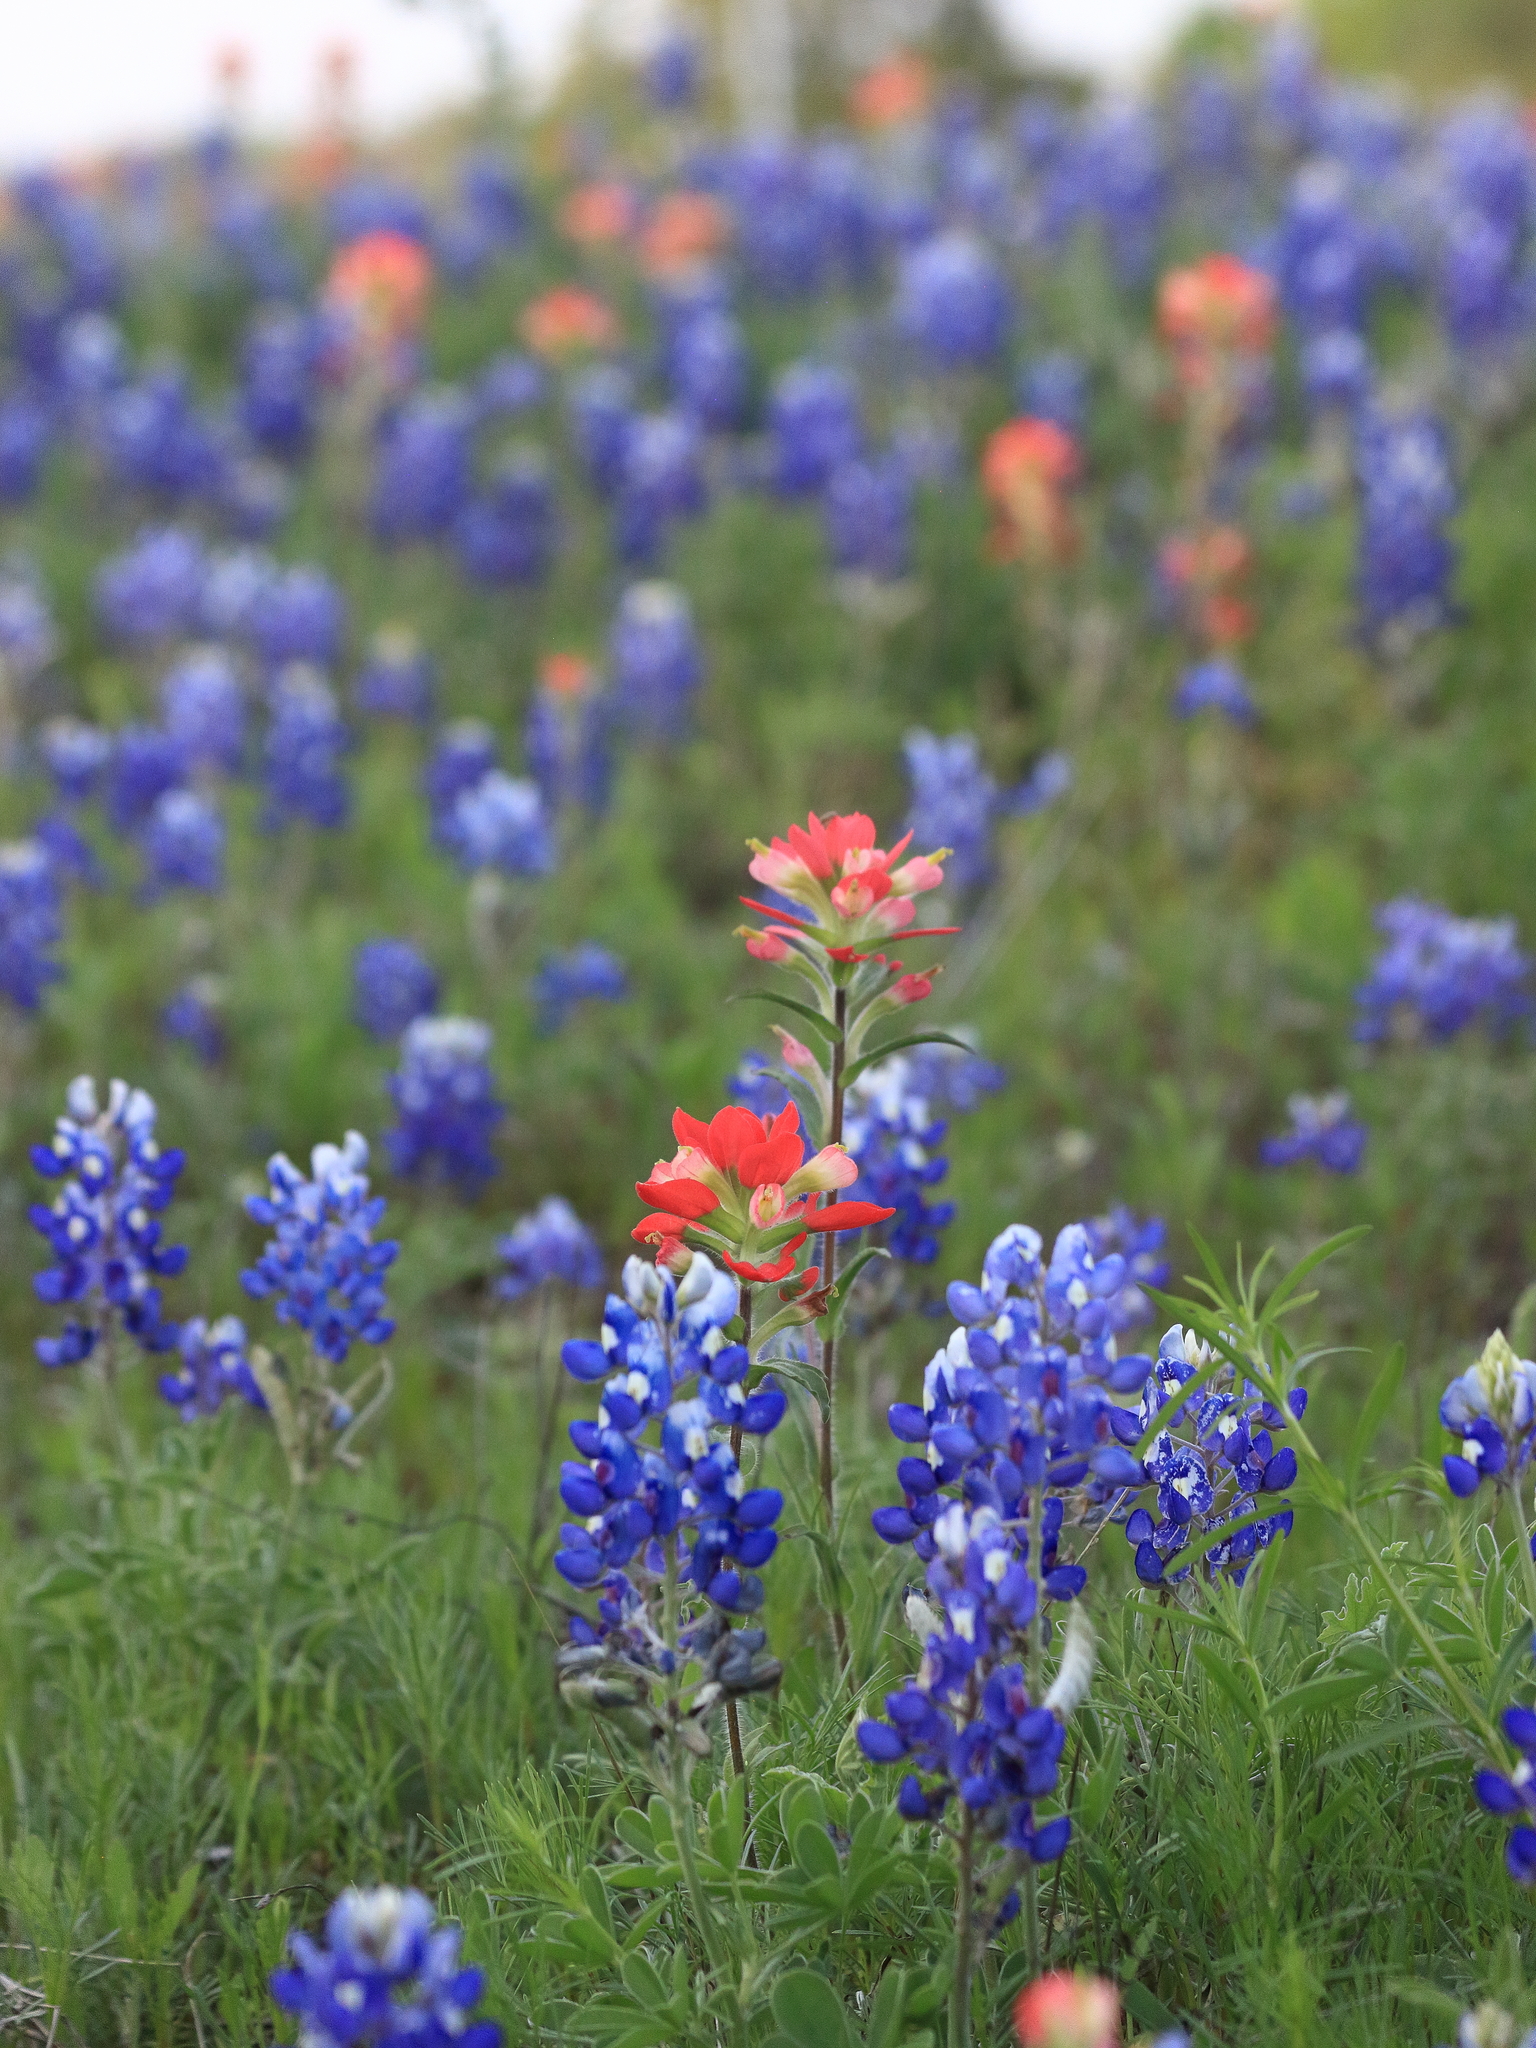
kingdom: Plantae
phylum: Tracheophyta
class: Magnoliopsida
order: Lamiales
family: Orobanchaceae
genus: Castilleja
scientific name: Castilleja indivisa
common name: Texas paintbrush
